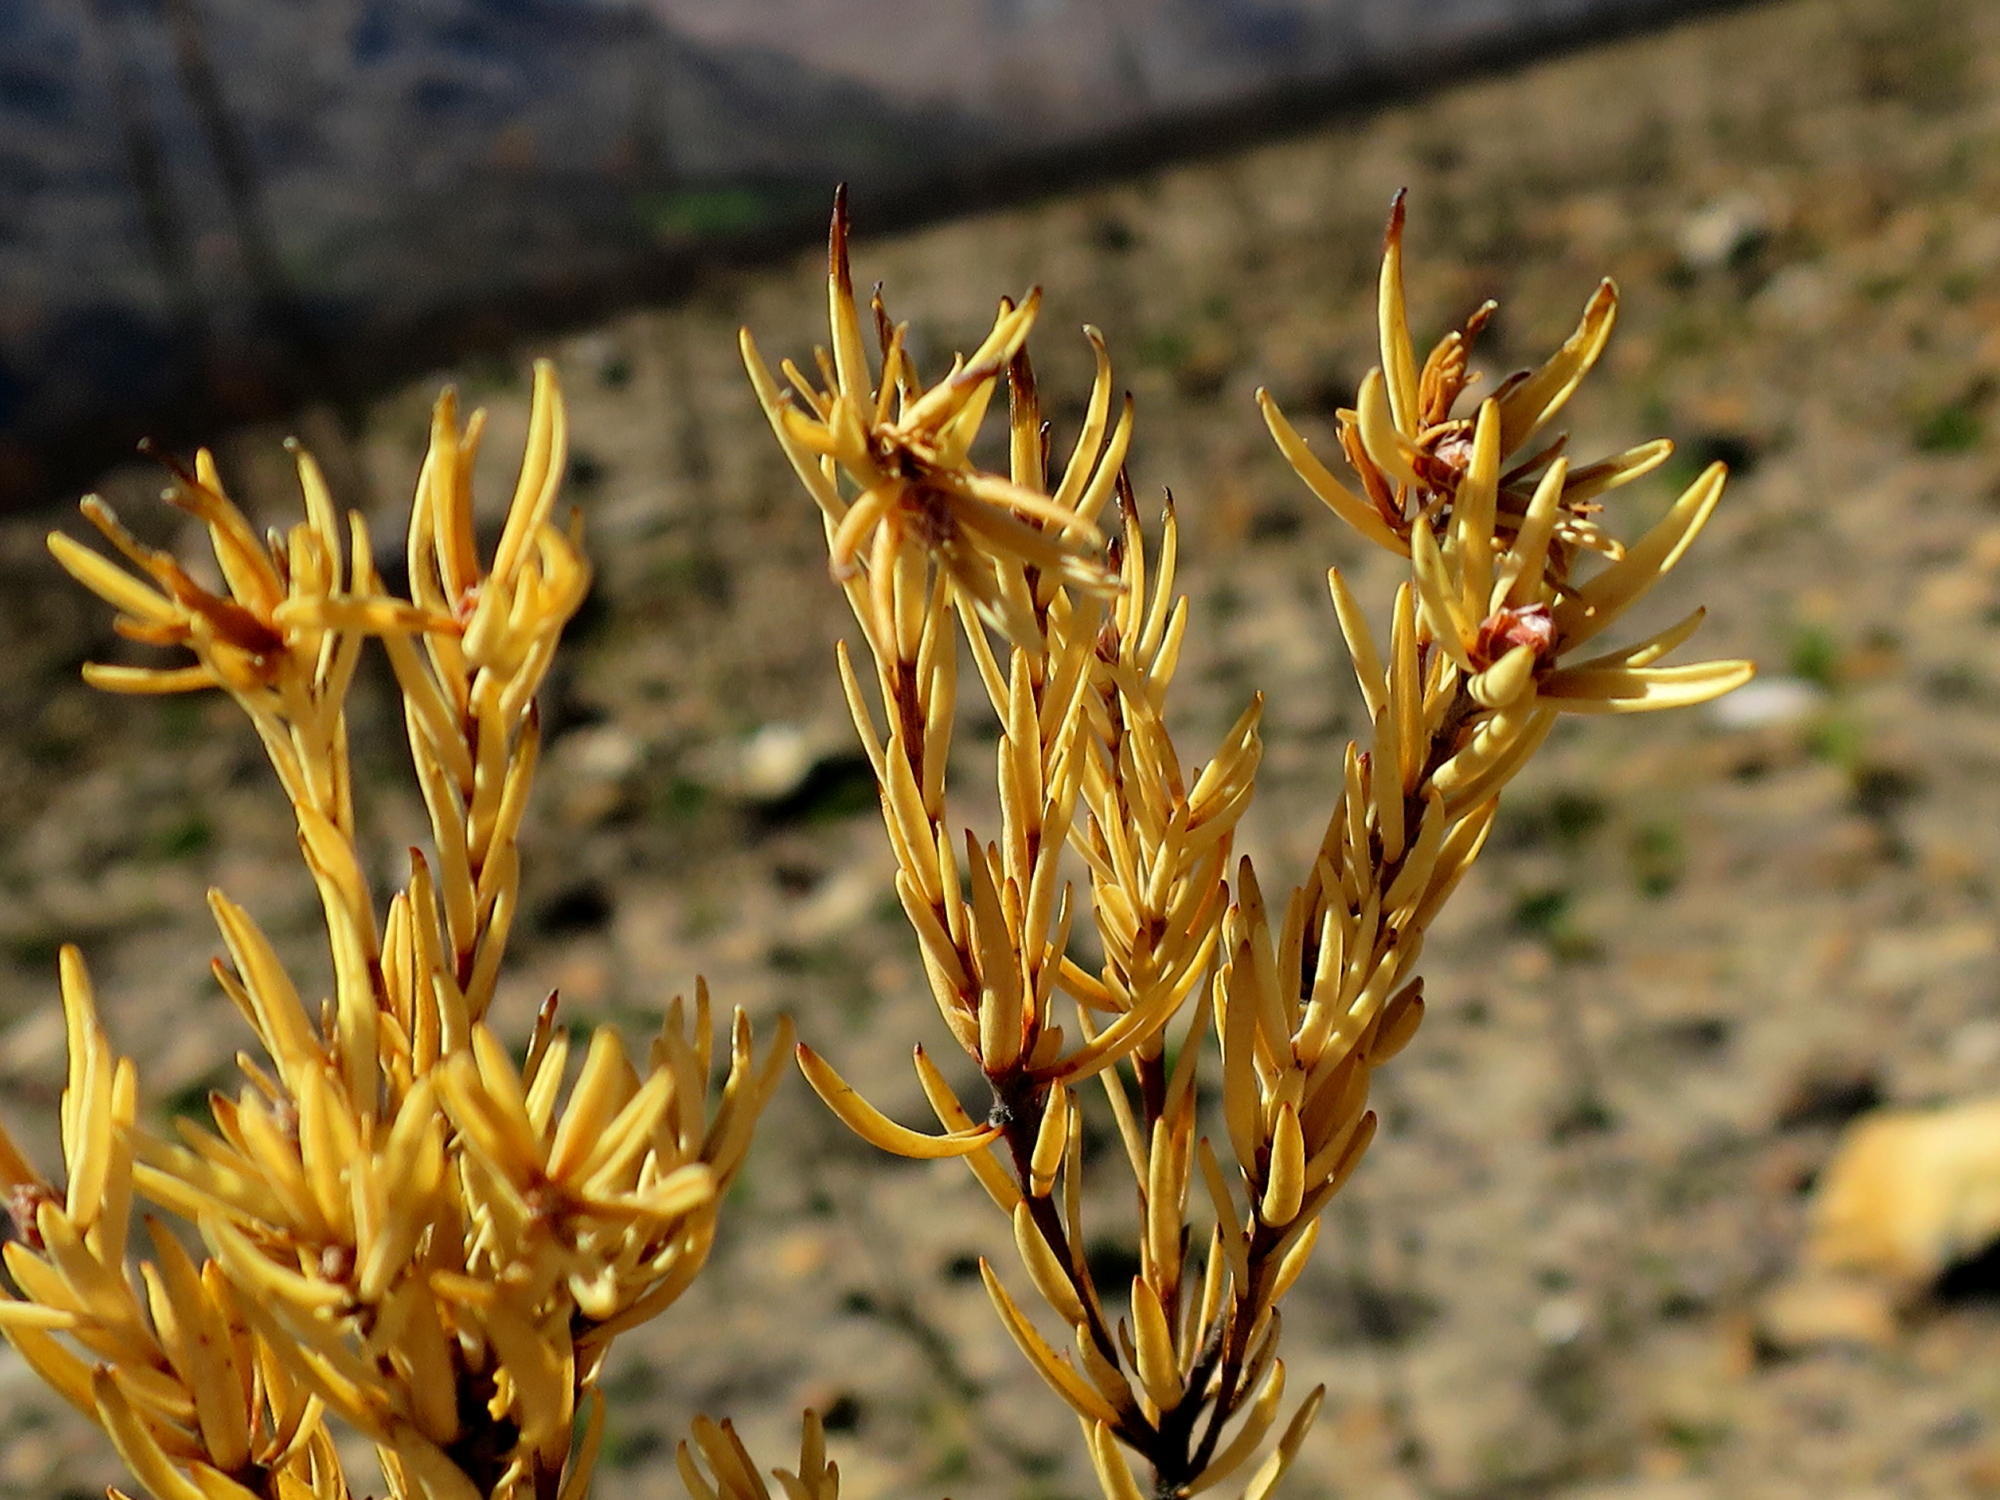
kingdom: Plantae
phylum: Tracheophyta
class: Magnoliopsida
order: Proteales
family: Proteaceae
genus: Leucadendron
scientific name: Leucadendron olens
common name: Yellow conebush
